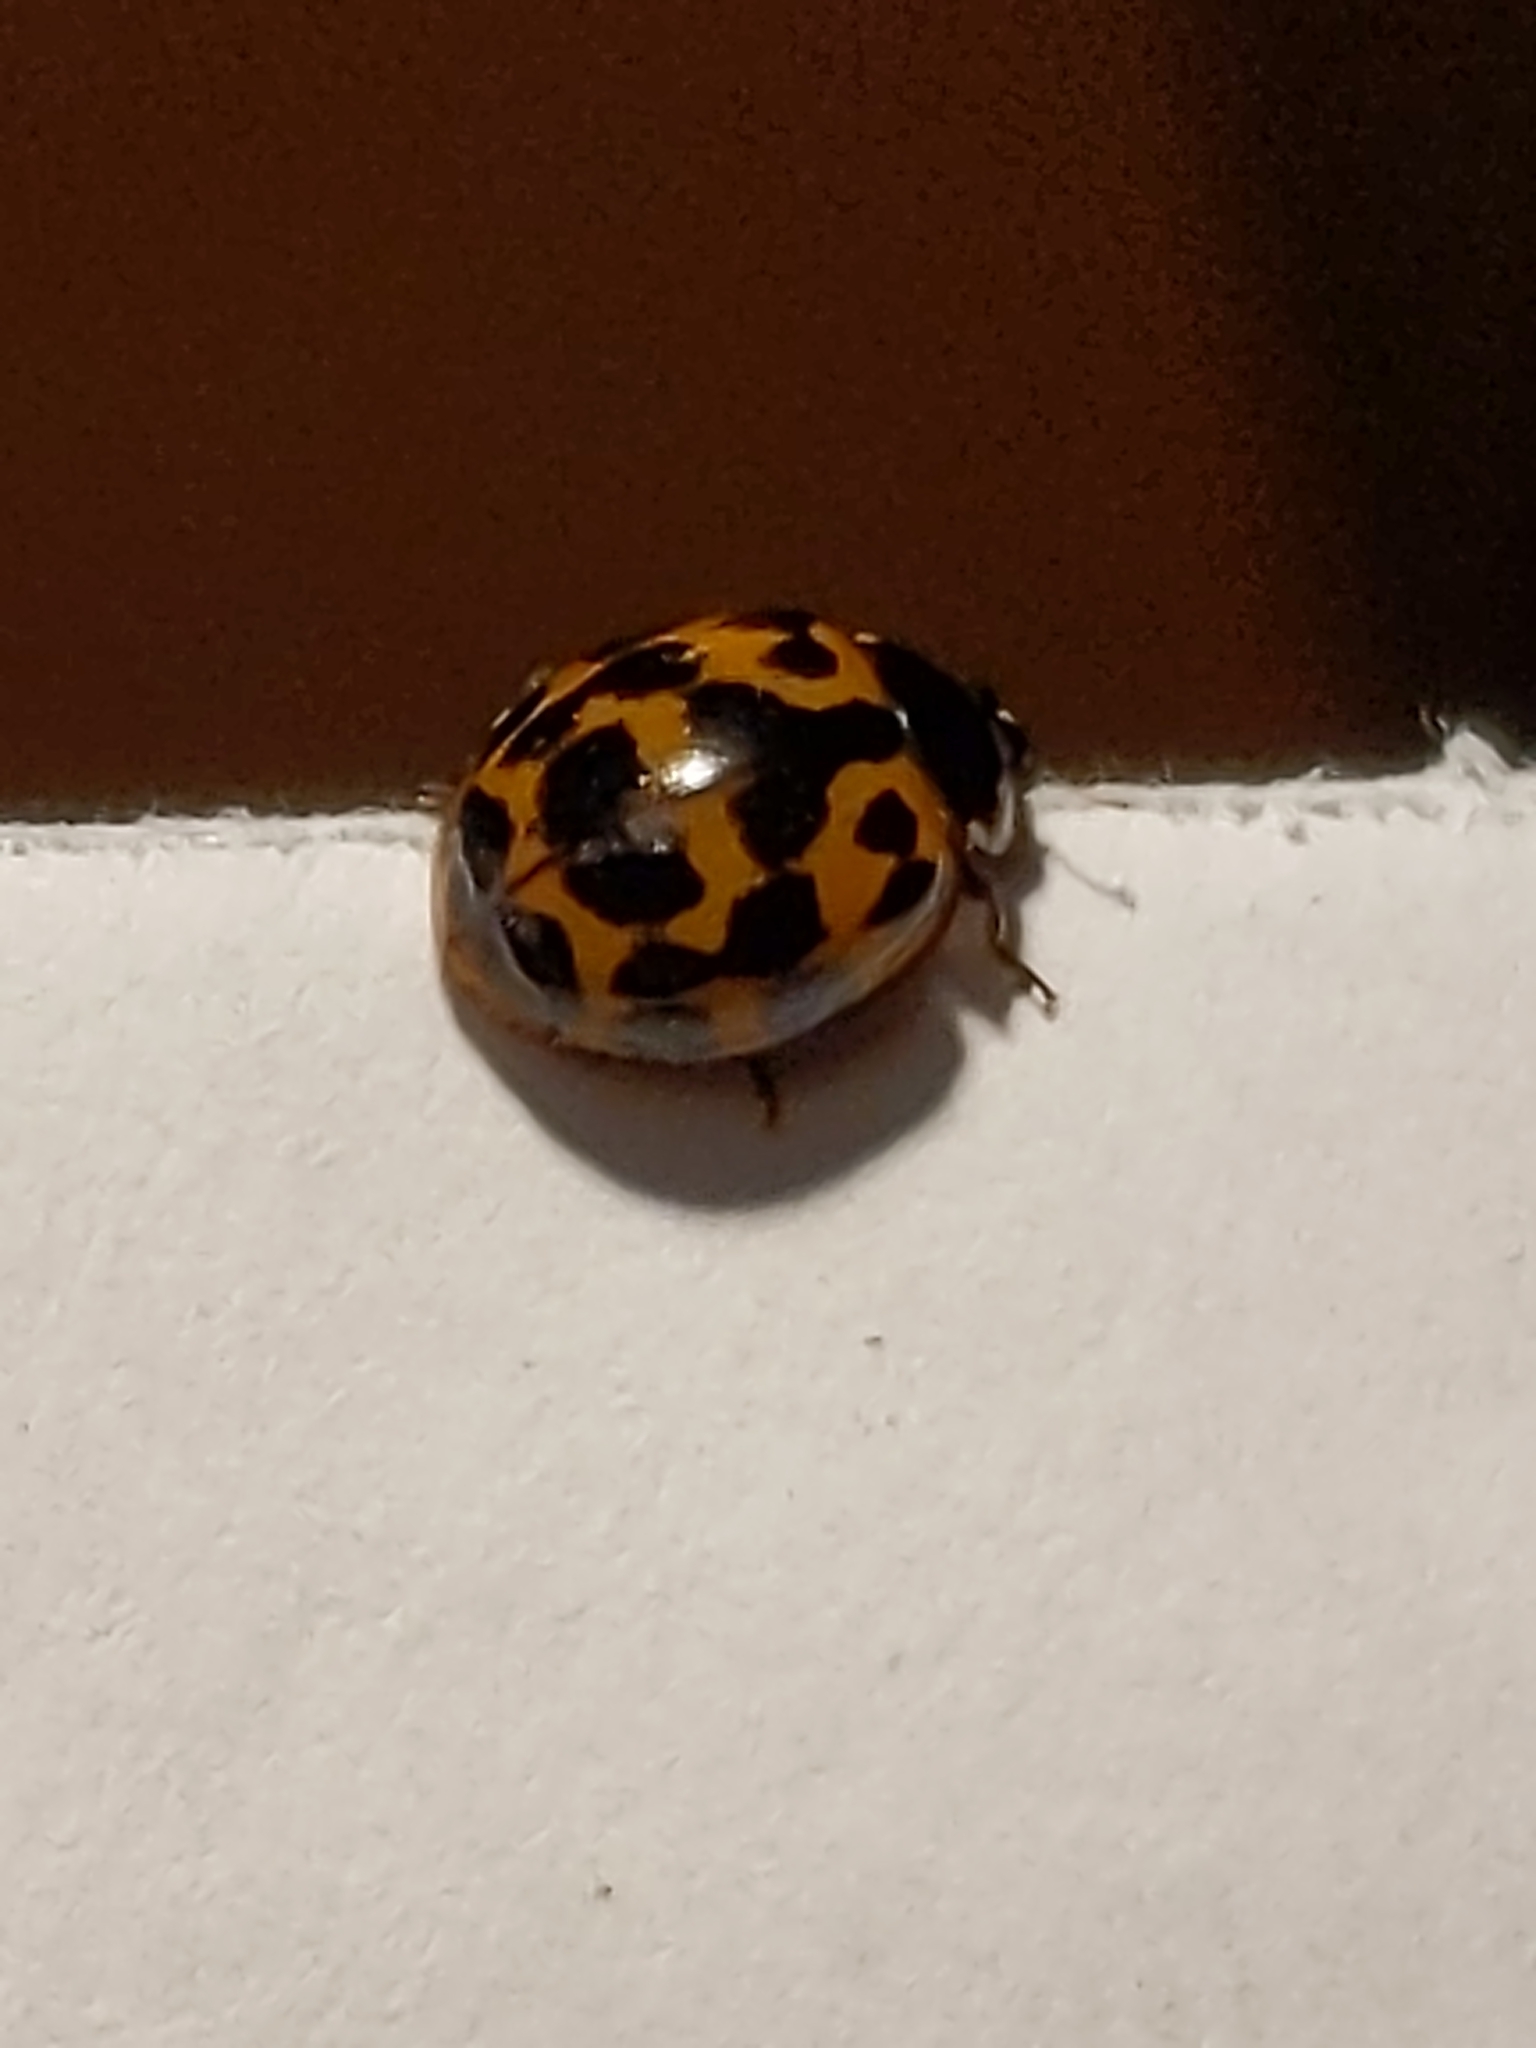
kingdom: Animalia
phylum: Arthropoda
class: Insecta
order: Coleoptera
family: Coccinellidae
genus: Harmonia
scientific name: Harmonia axyridis
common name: Harlequin ladybird
